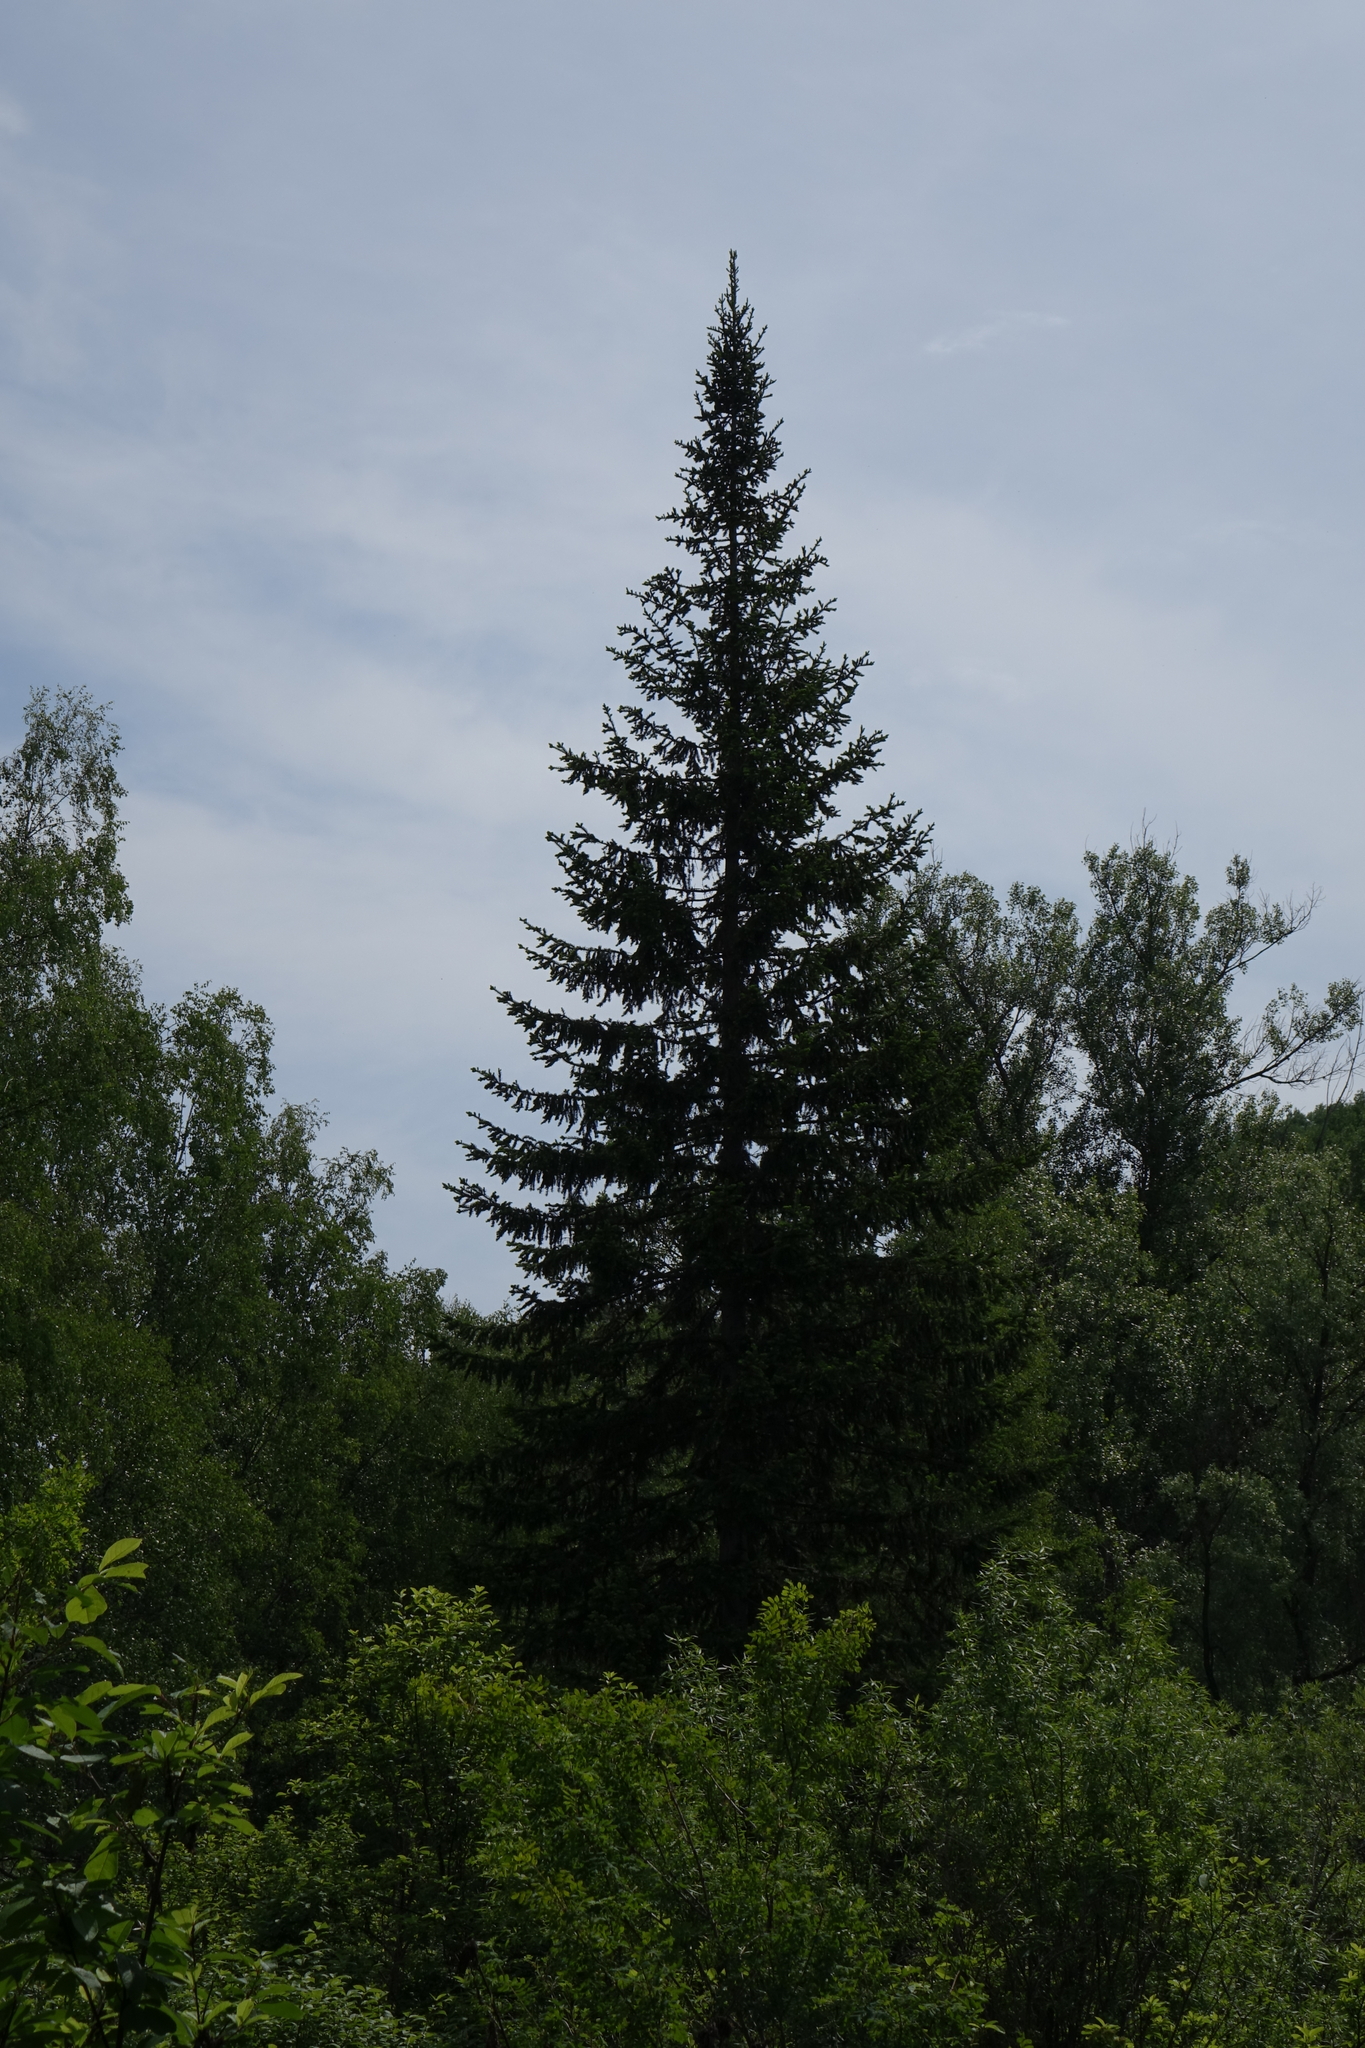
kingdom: Plantae
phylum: Tracheophyta
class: Pinopsida
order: Pinales
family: Pinaceae
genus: Picea
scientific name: Picea obovata
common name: Siberian spruce
